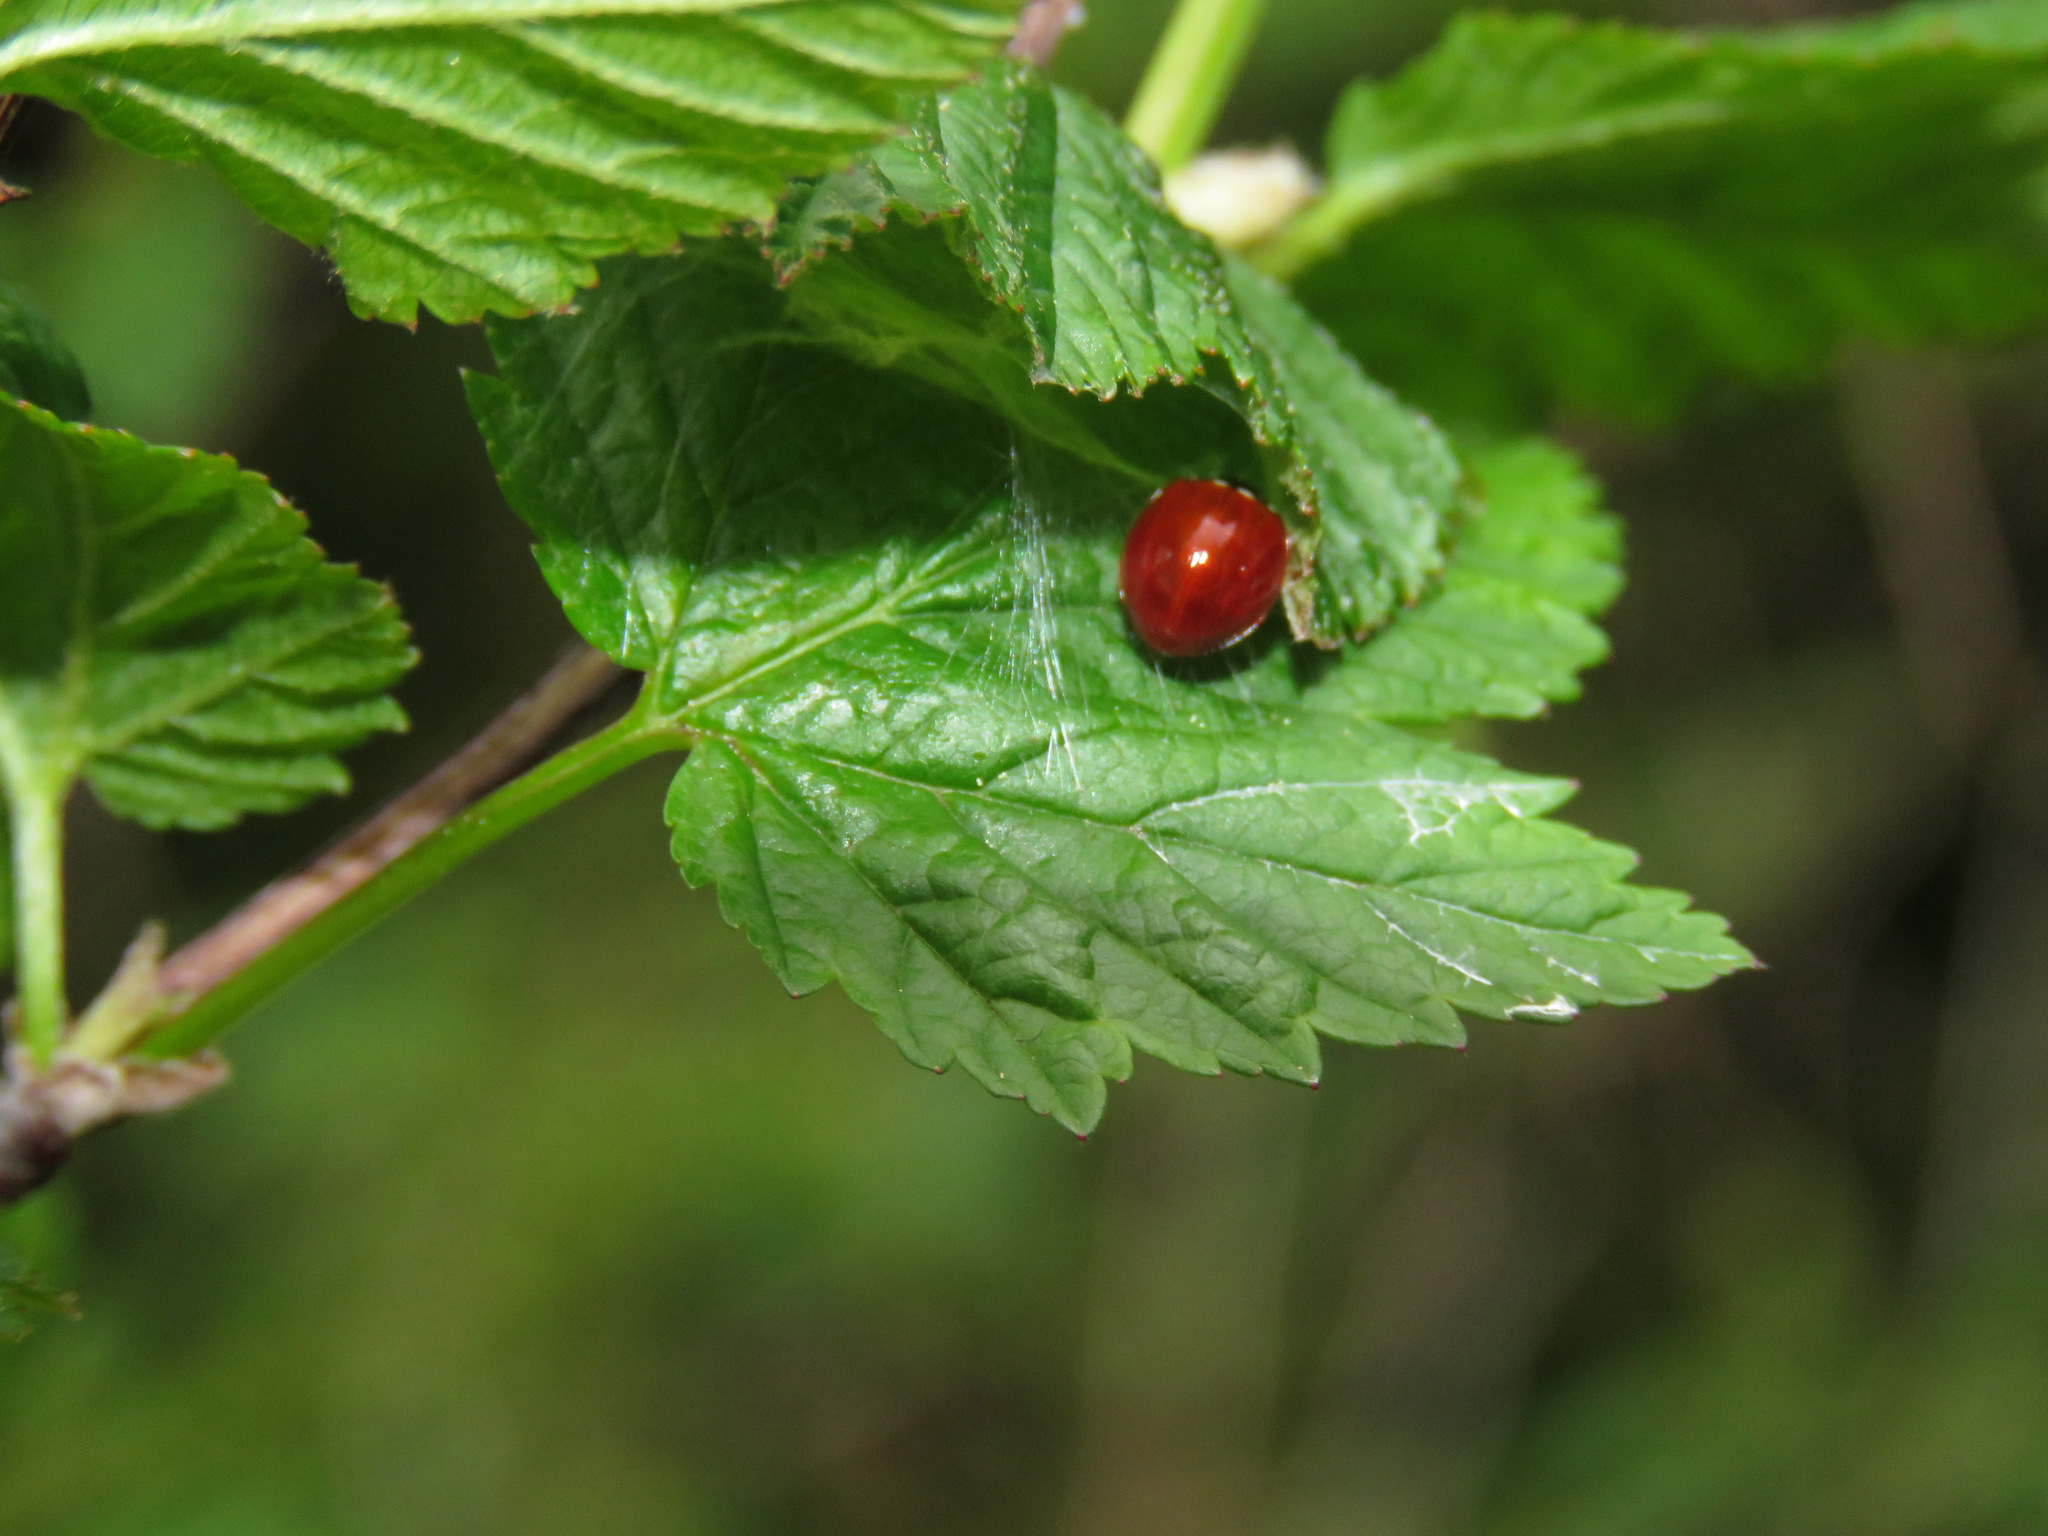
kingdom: Animalia
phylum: Arthropoda
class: Insecta
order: Coleoptera
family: Coccinellidae
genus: Cycloneda
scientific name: Cycloneda polita
